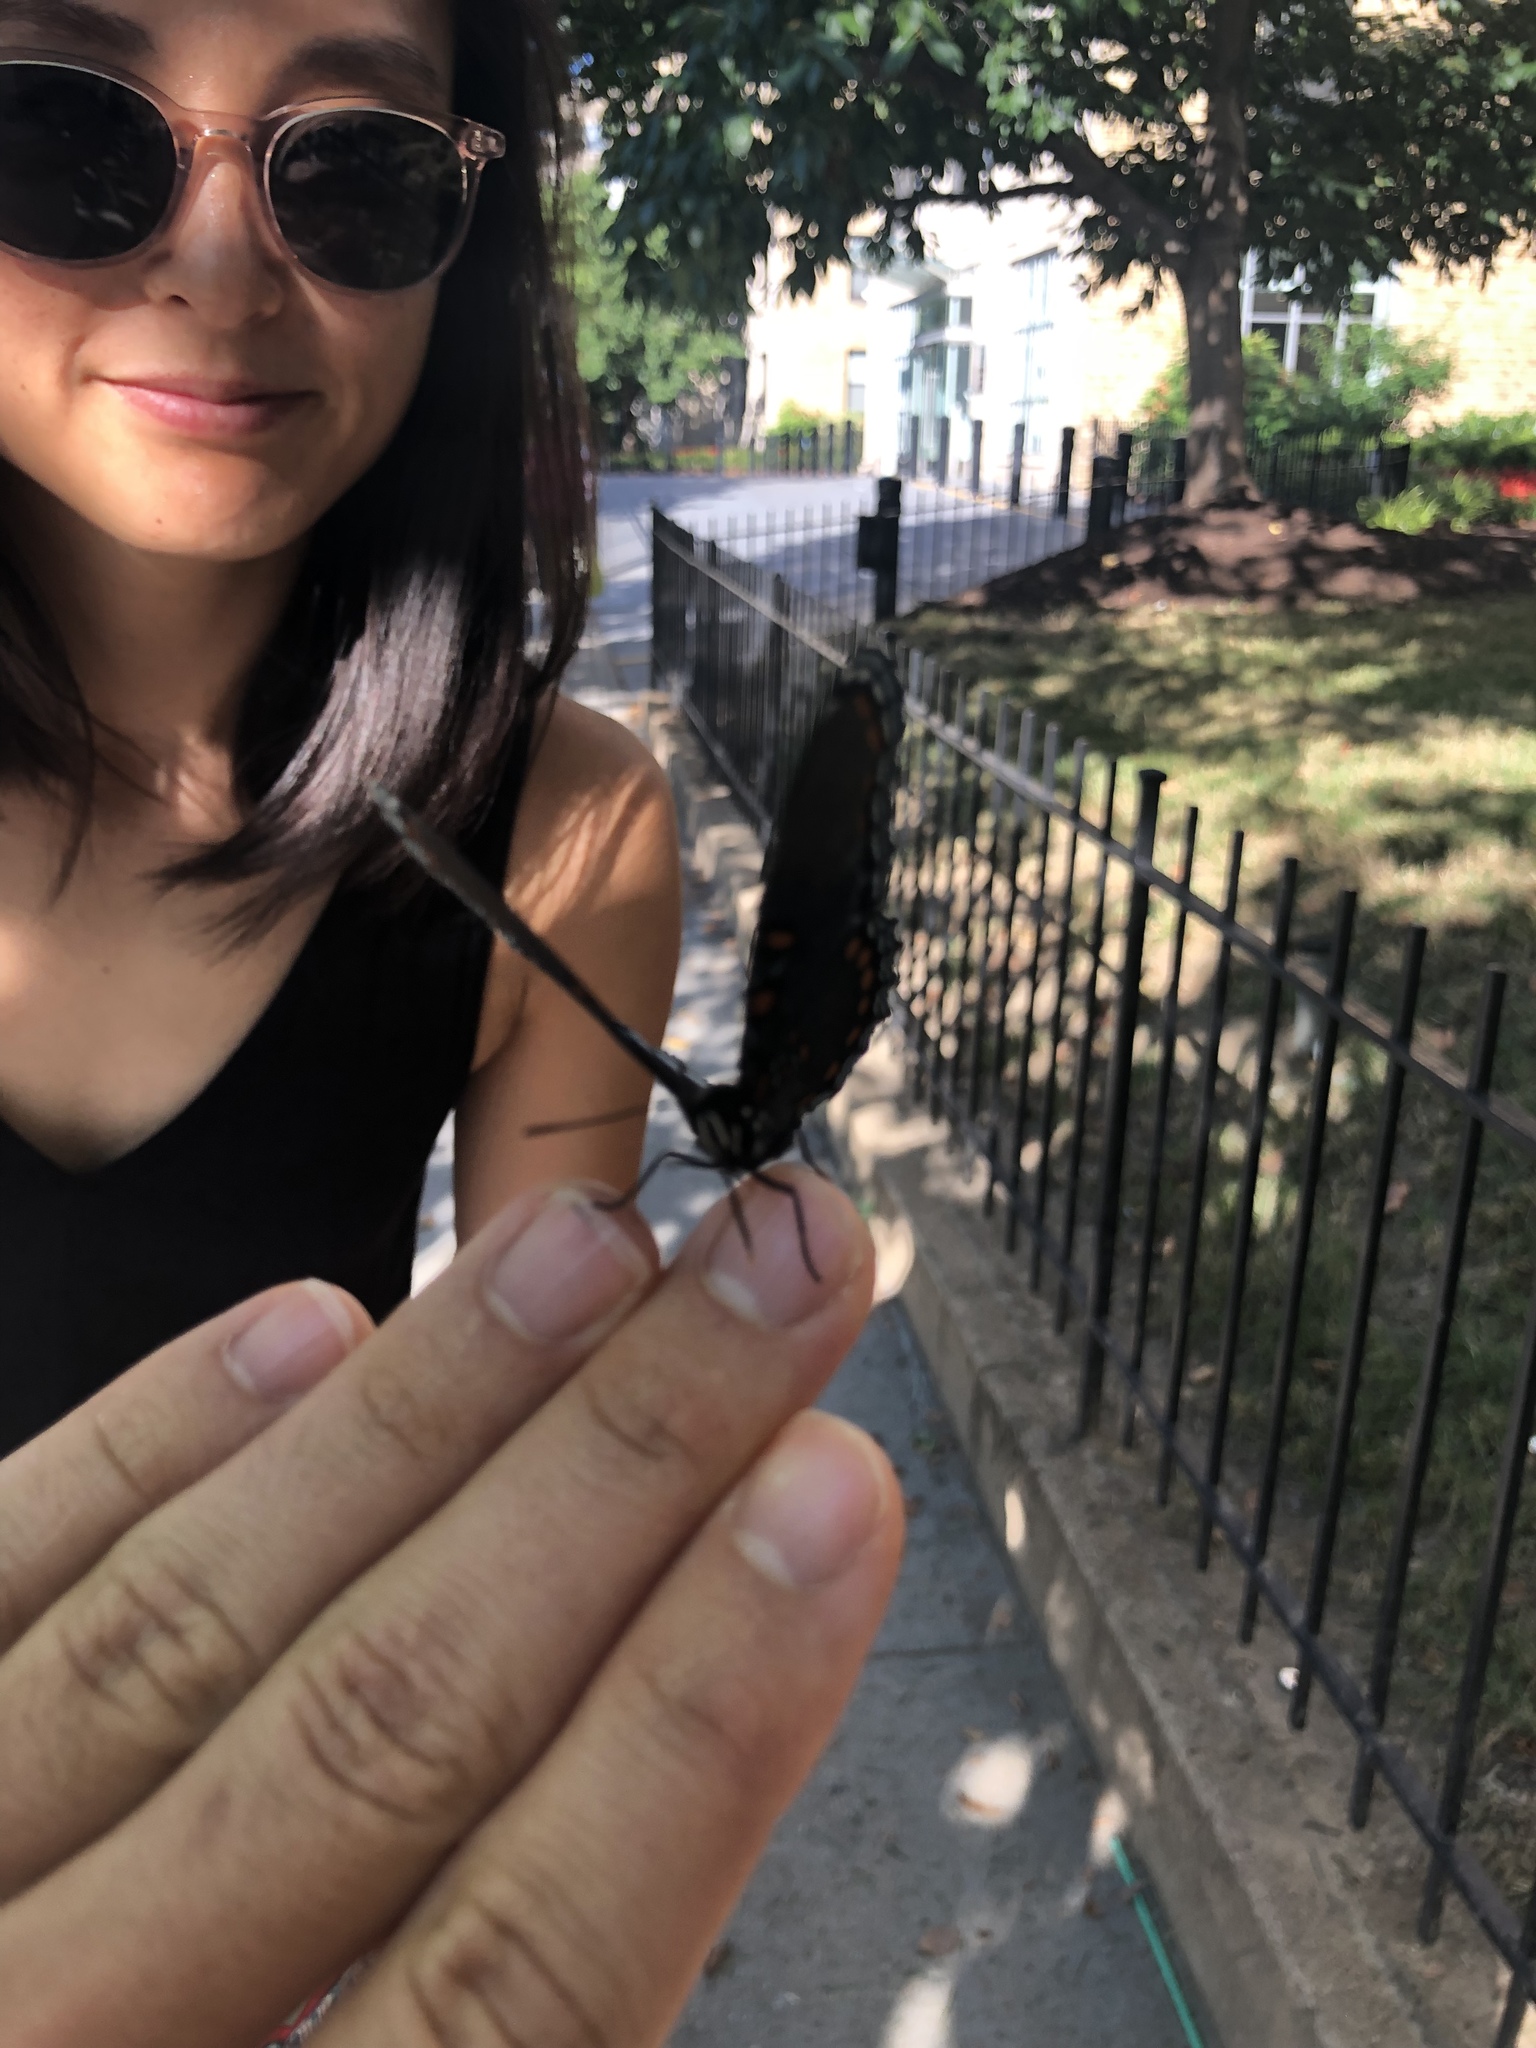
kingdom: Animalia
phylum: Arthropoda
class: Insecta
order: Lepidoptera
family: Nymphalidae
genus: Limenitis
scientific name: Limenitis arthemis
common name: Red-spotted admiral
